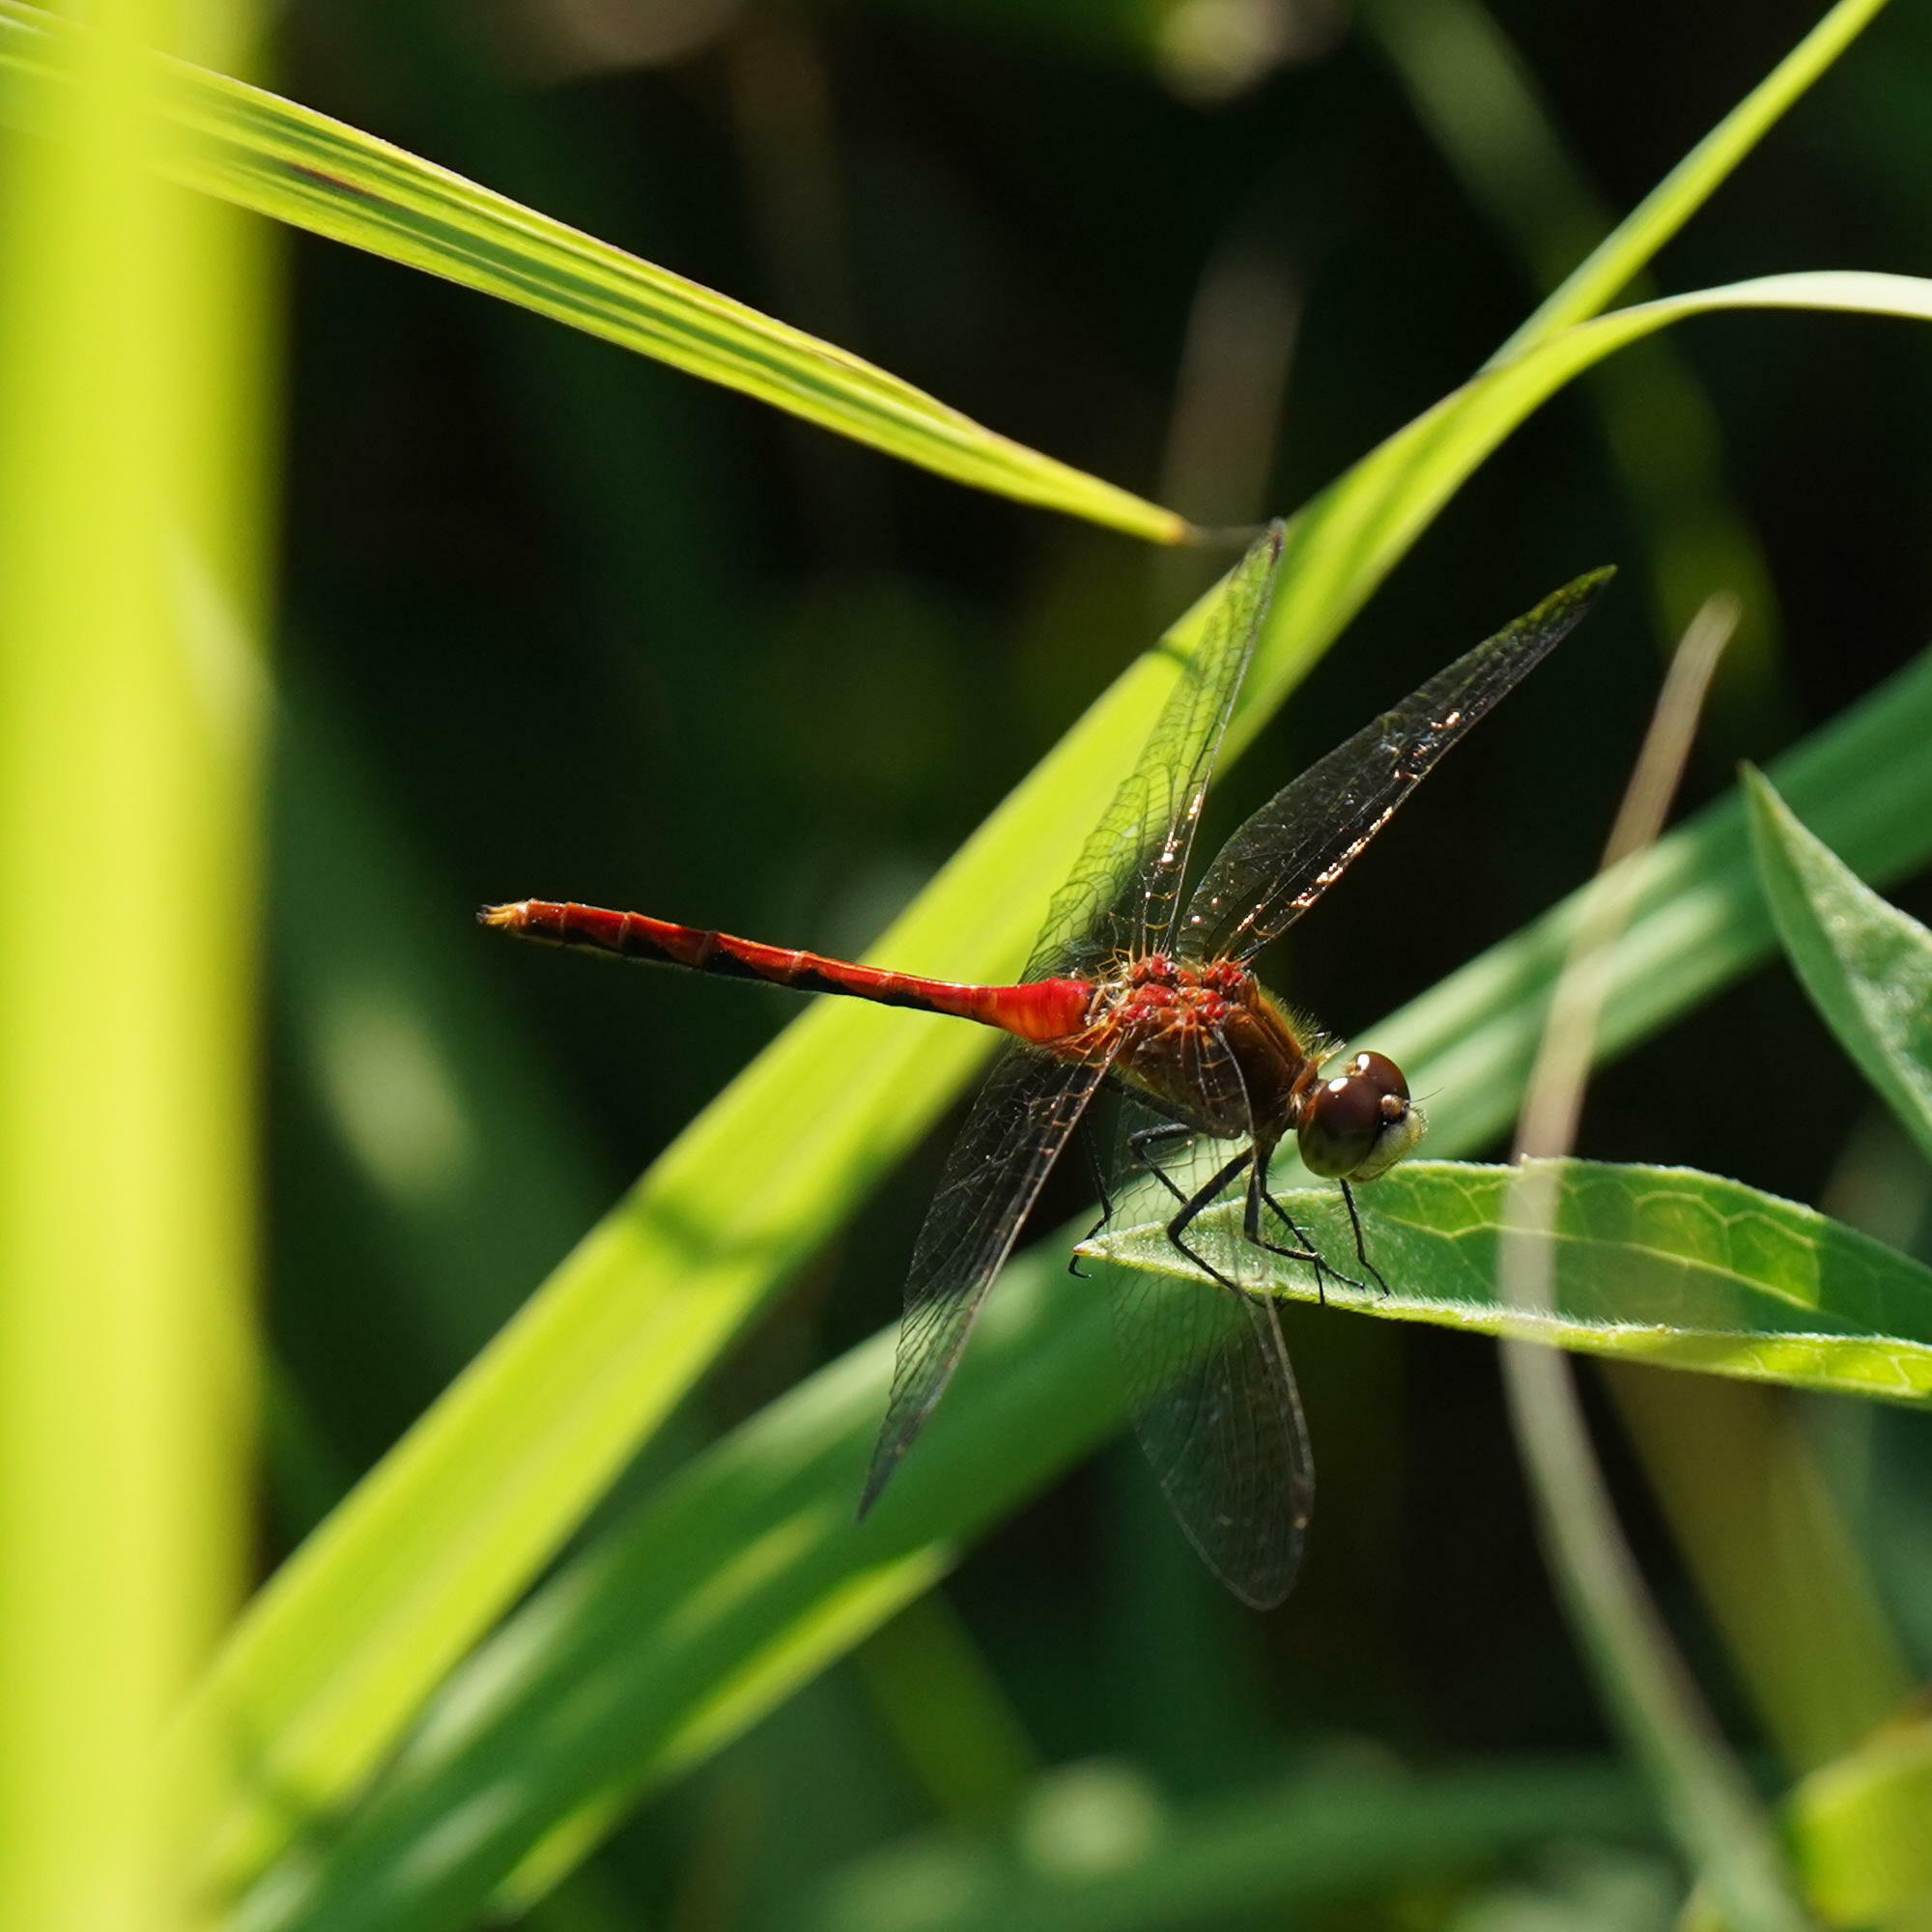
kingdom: Animalia
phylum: Arthropoda
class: Insecta
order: Odonata
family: Libellulidae
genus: Sympetrum
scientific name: Sympetrum obtrusum
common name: White-faced meadowhawk
